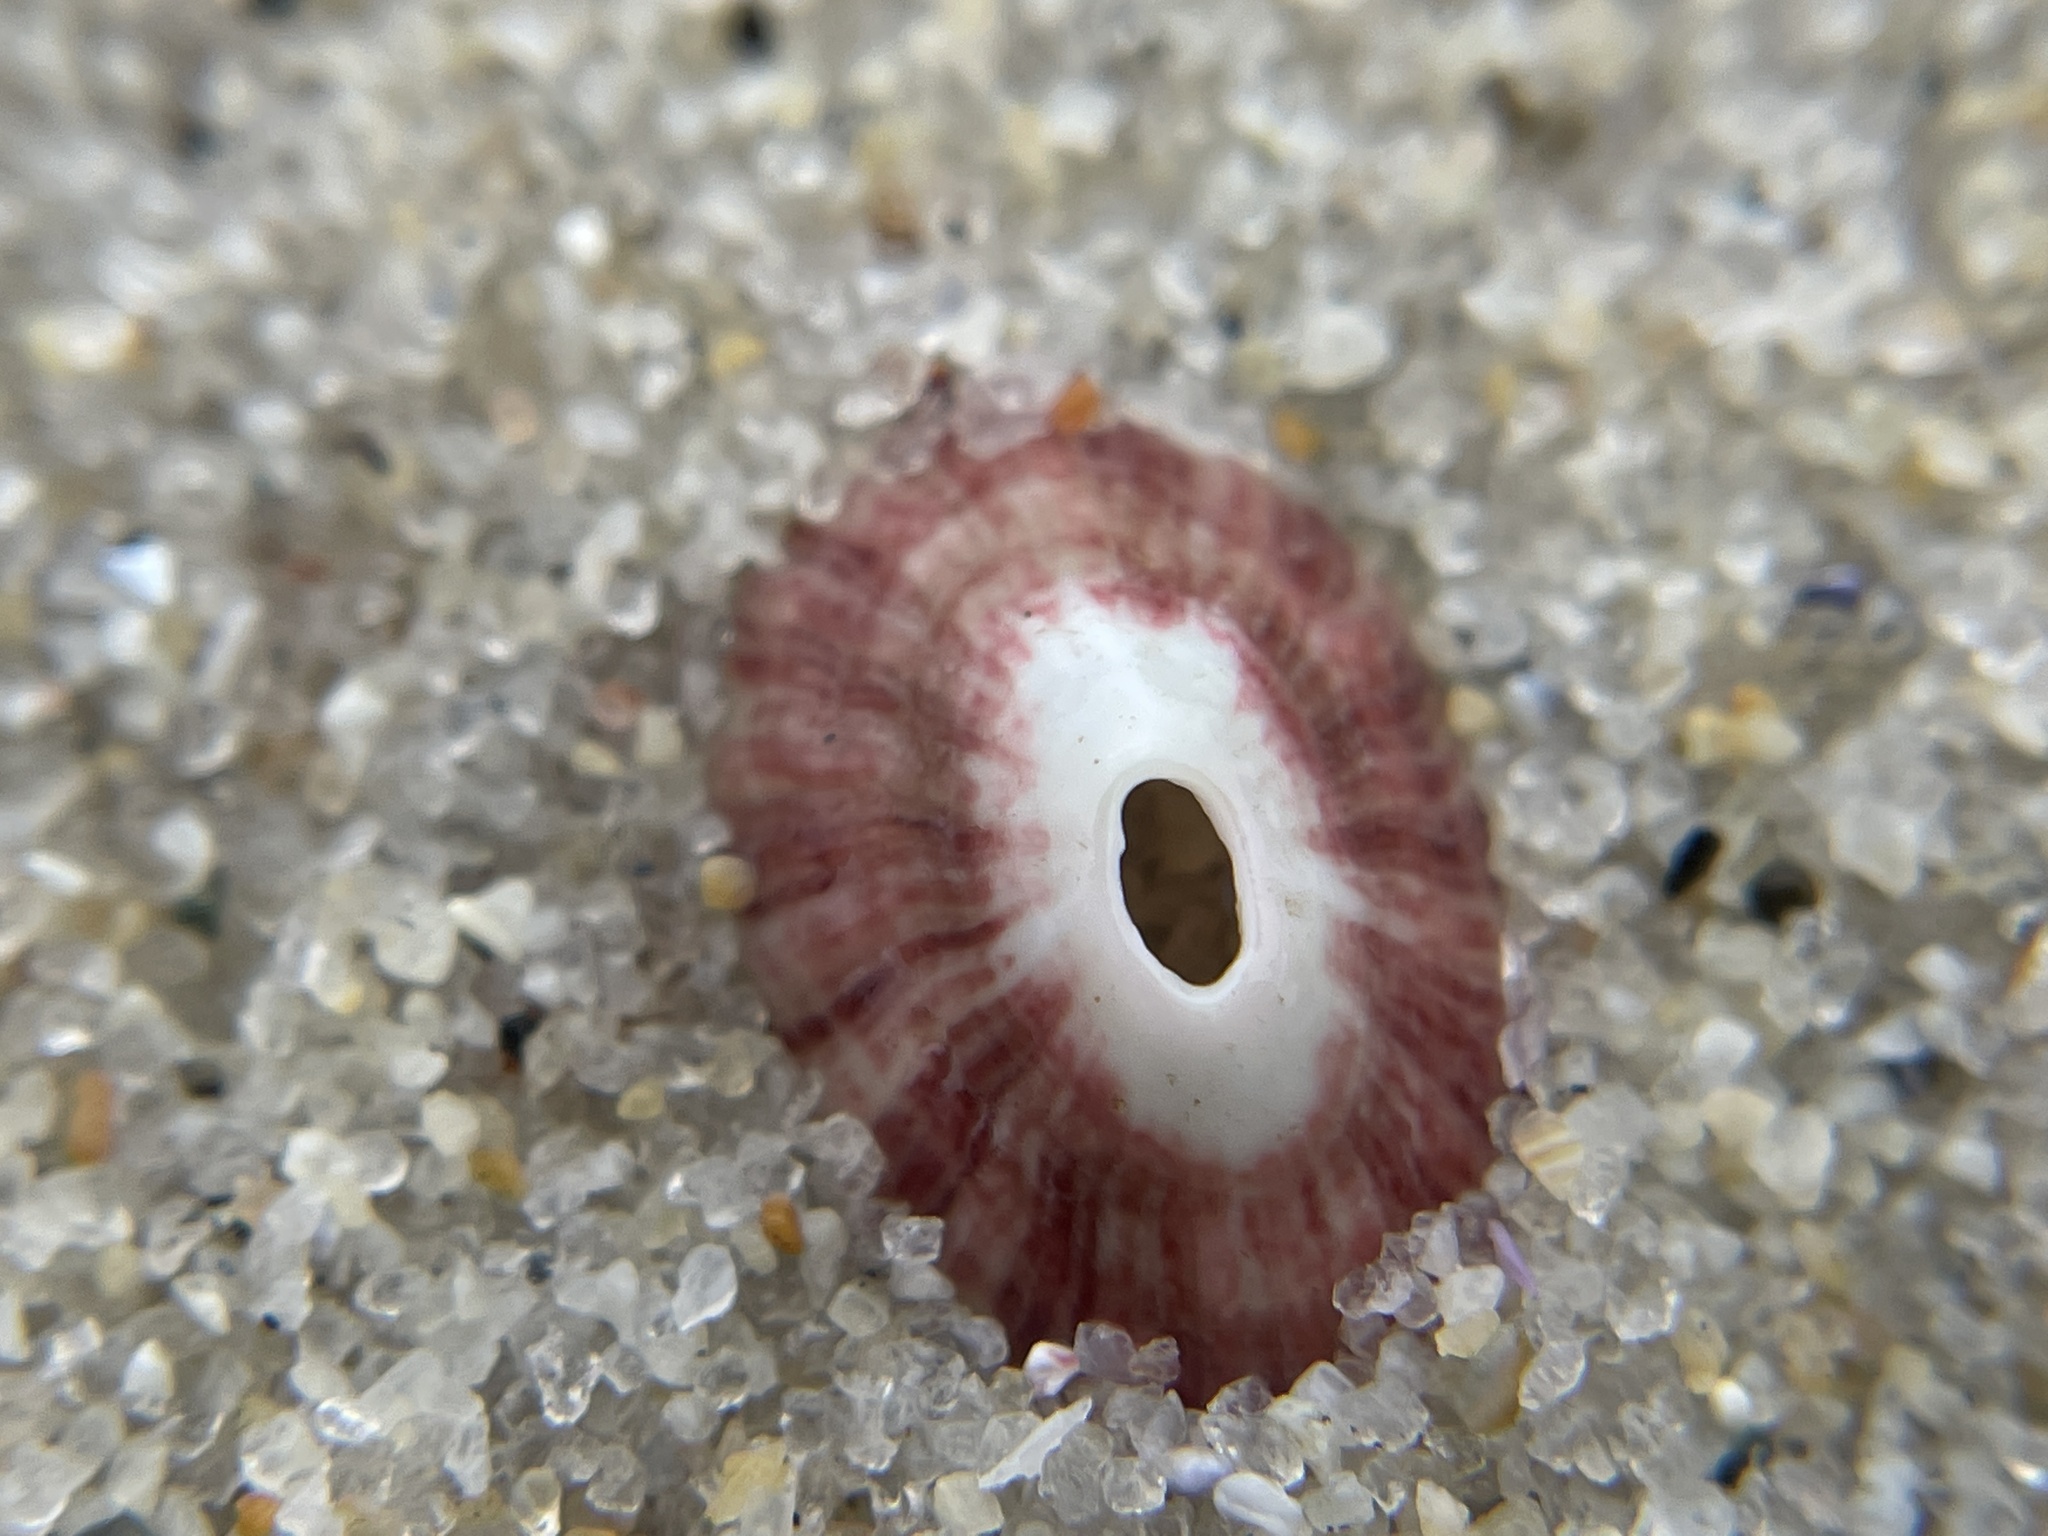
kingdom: Animalia
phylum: Mollusca
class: Gastropoda
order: Lepetellida
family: Fissurellidae
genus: Fissurella
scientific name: Fissurella volcano
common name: Volcano keyhole limpet
